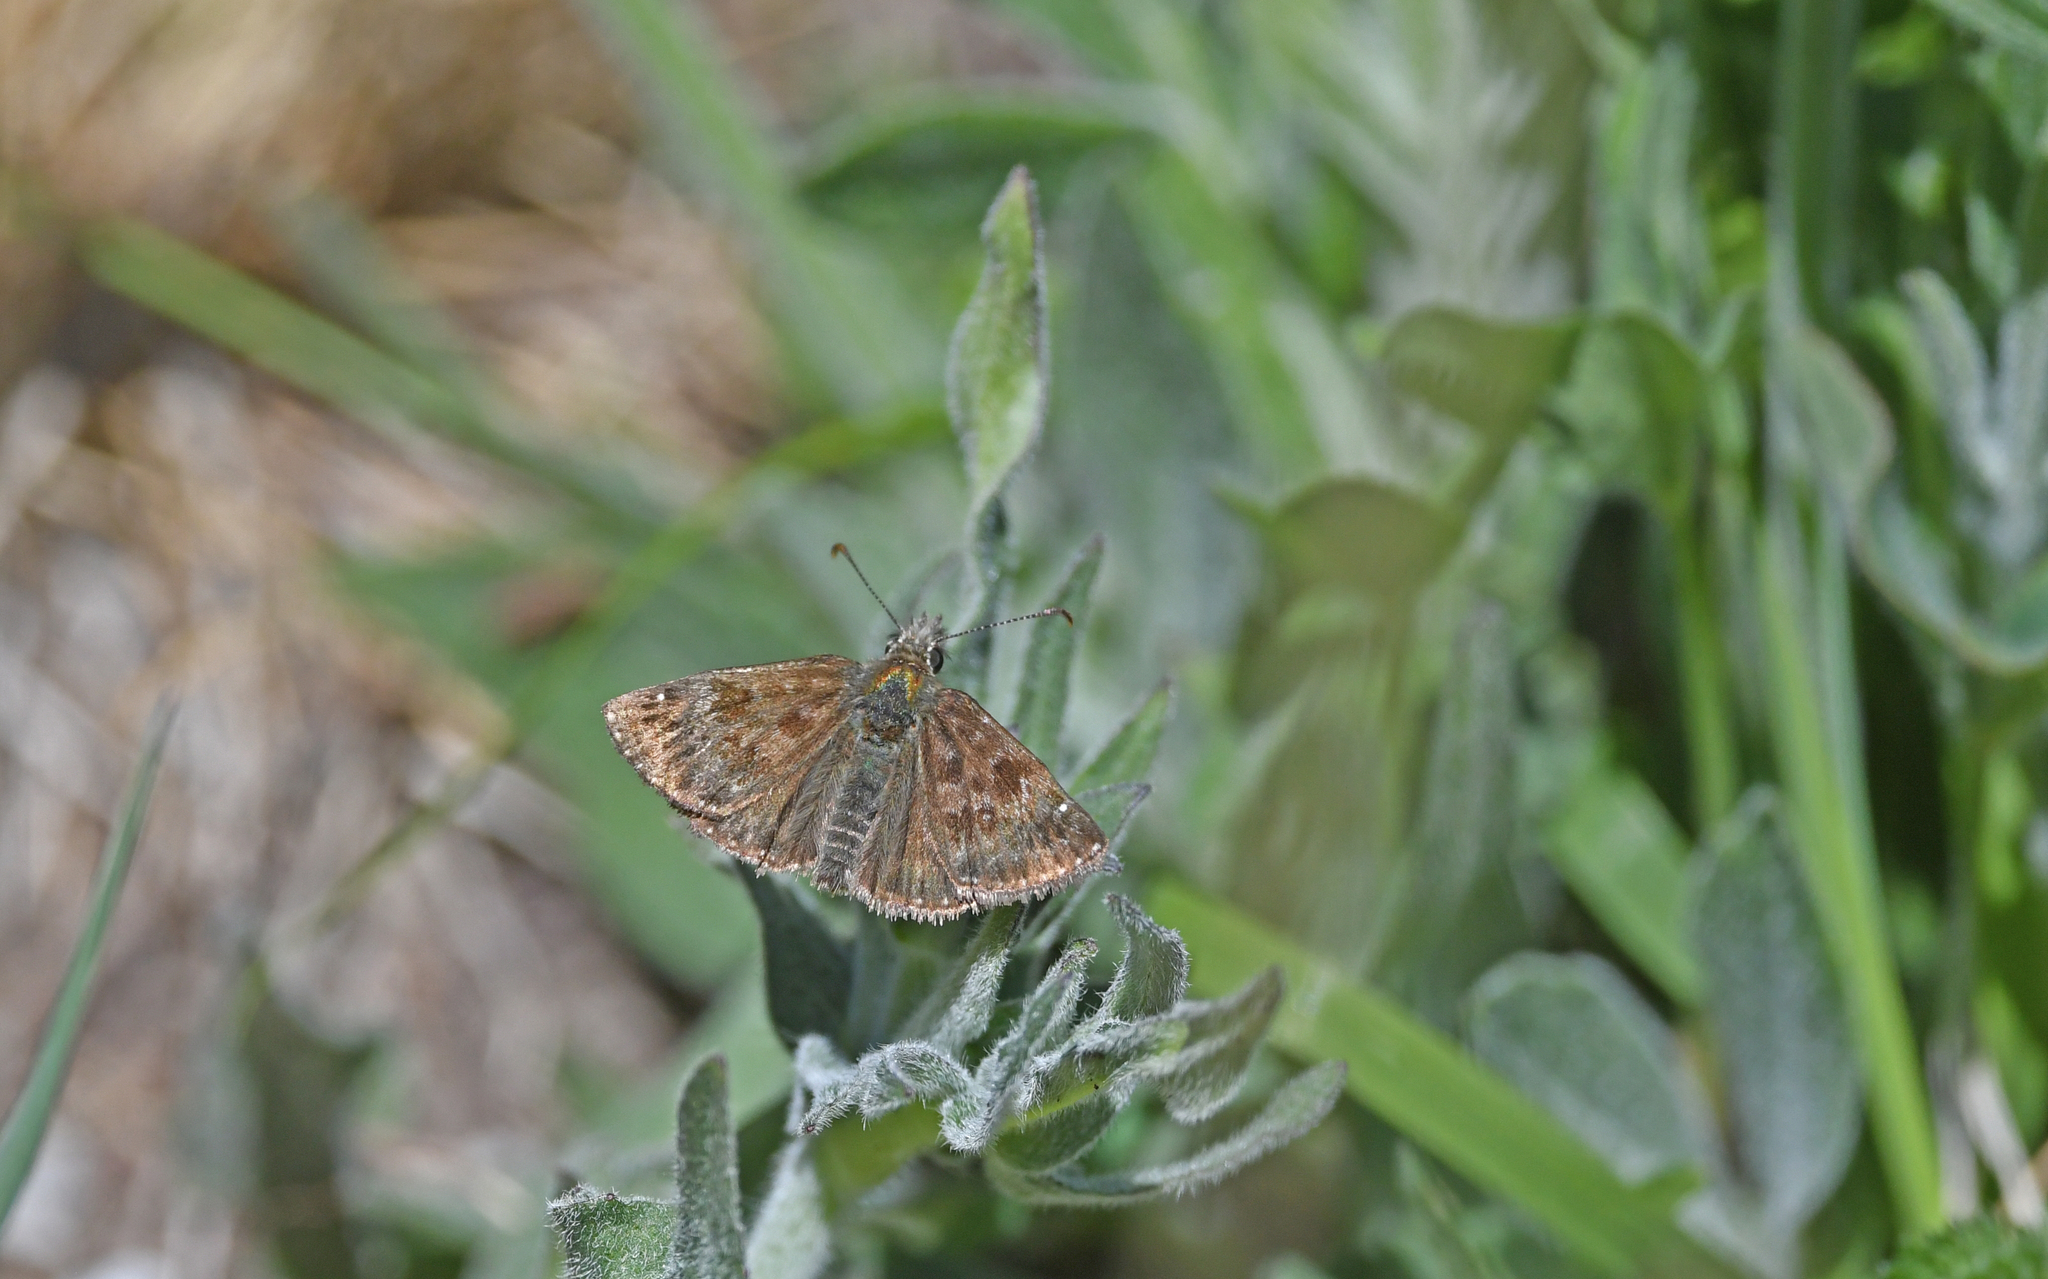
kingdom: Animalia
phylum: Arthropoda
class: Insecta
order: Lepidoptera
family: Hesperiidae
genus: Erynnis
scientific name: Erynnis tages
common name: Dingy skipper
